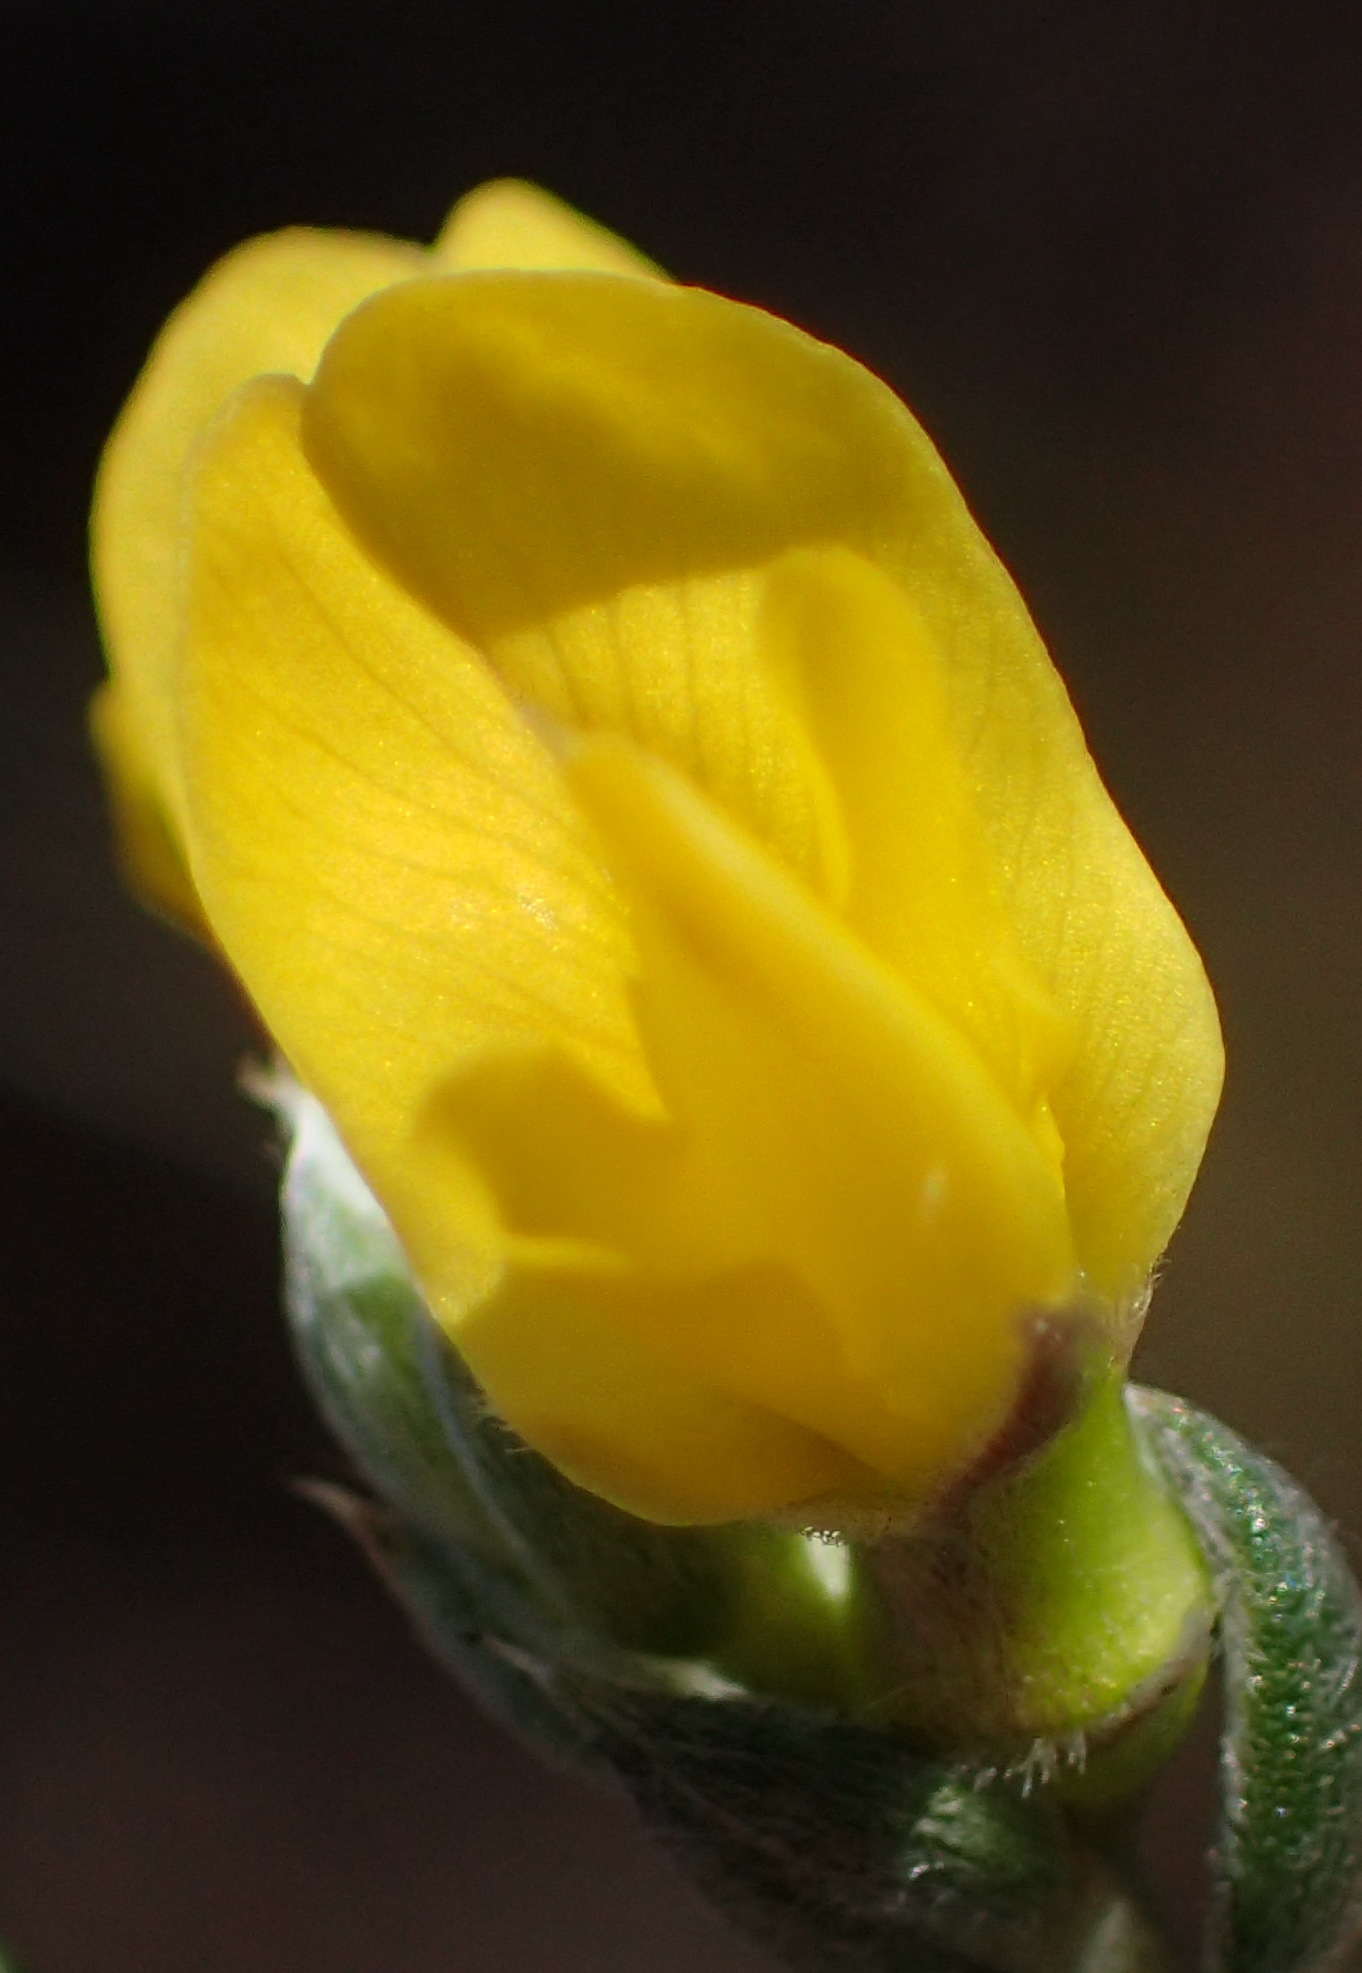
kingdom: Plantae
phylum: Tracheophyta
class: Magnoliopsida
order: Fabales
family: Fabaceae
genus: Amphithalea
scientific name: Amphithalea flava
